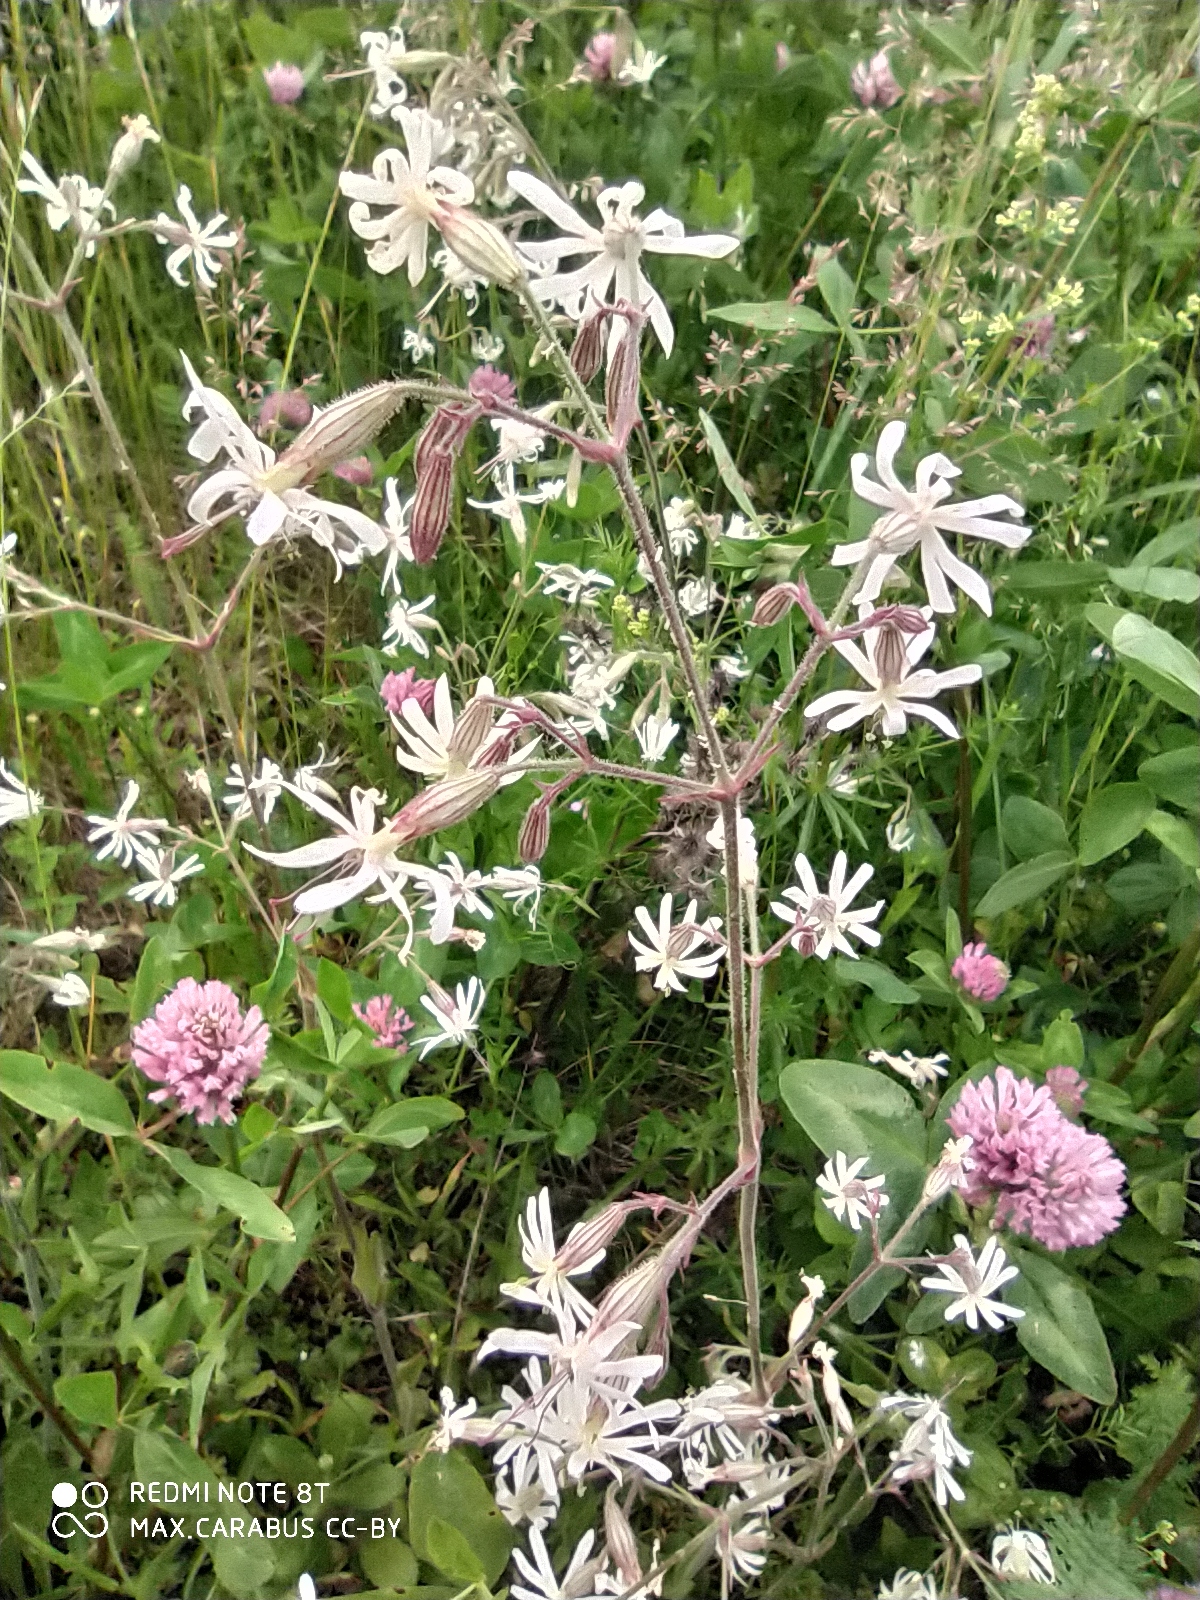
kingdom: Plantae
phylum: Tracheophyta
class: Magnoliopsida
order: Caryophyllales
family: Caryophyllaceae
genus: Silene
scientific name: Silene nutans
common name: Nottingham catchfly
